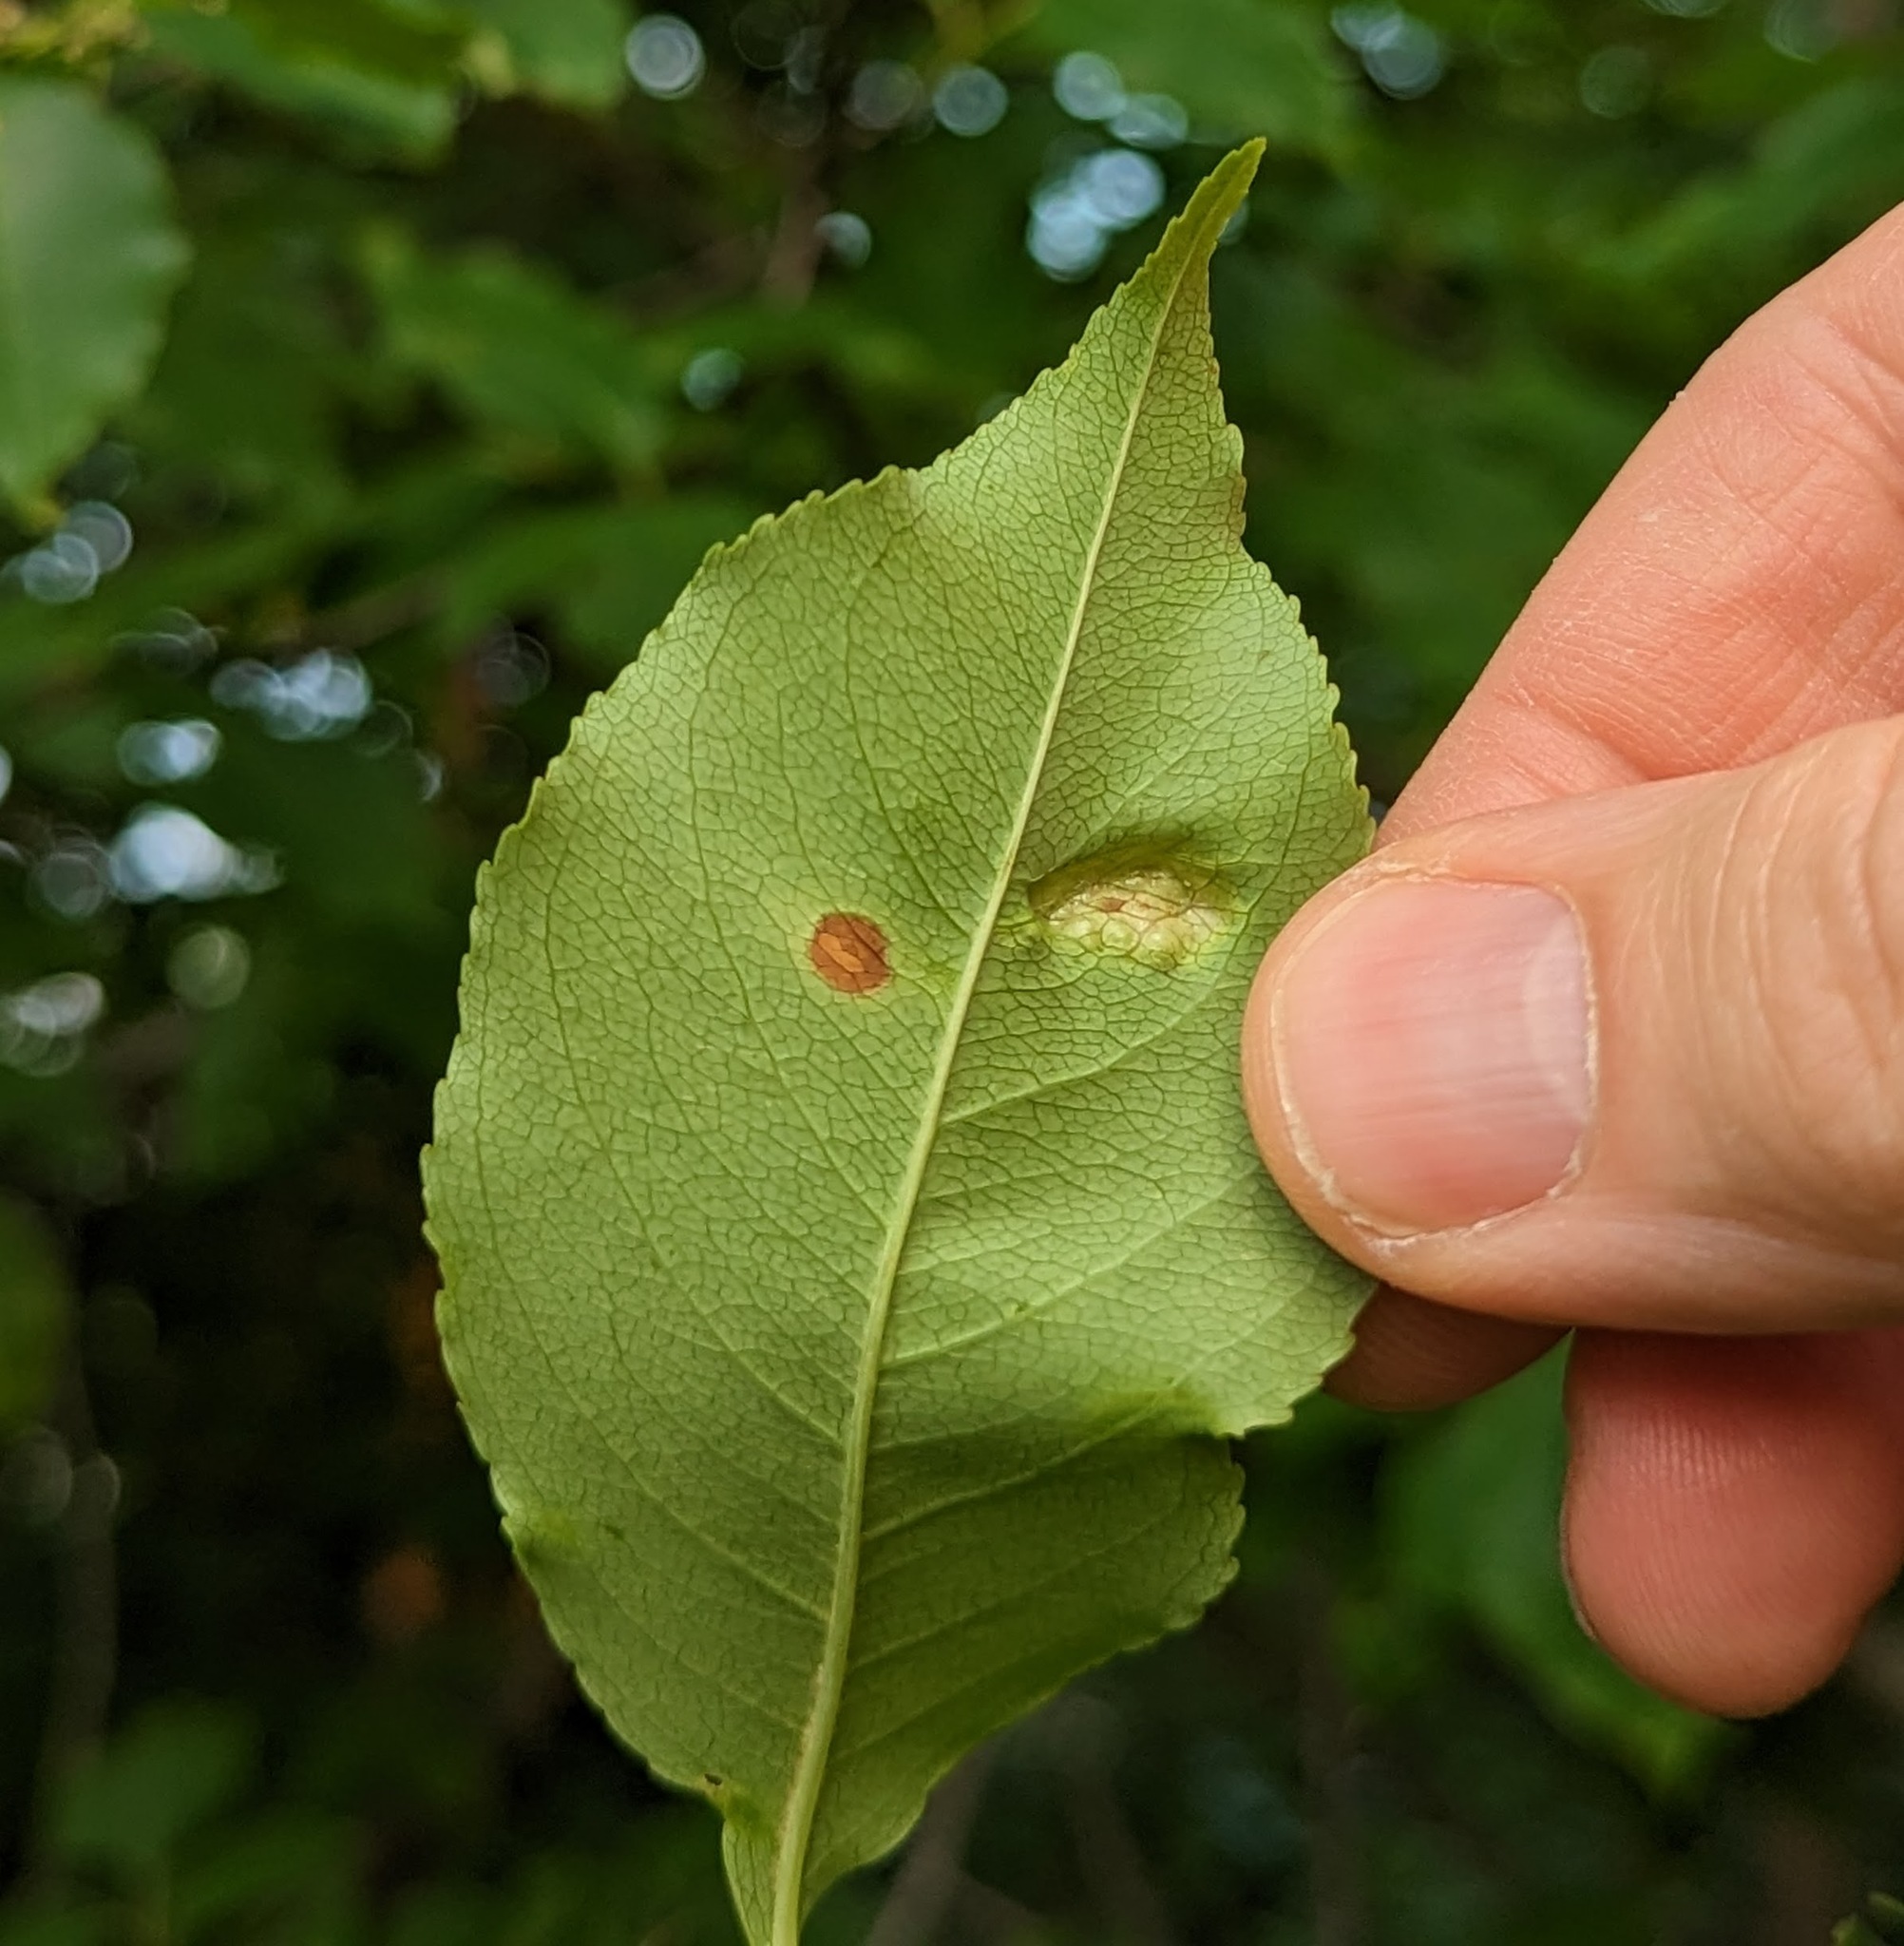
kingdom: Fungi
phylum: Ascomycota
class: Taphrinomycetes
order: Taphrinales
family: Taphrinaceae
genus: Taphrina
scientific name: Taphrina farlowii
